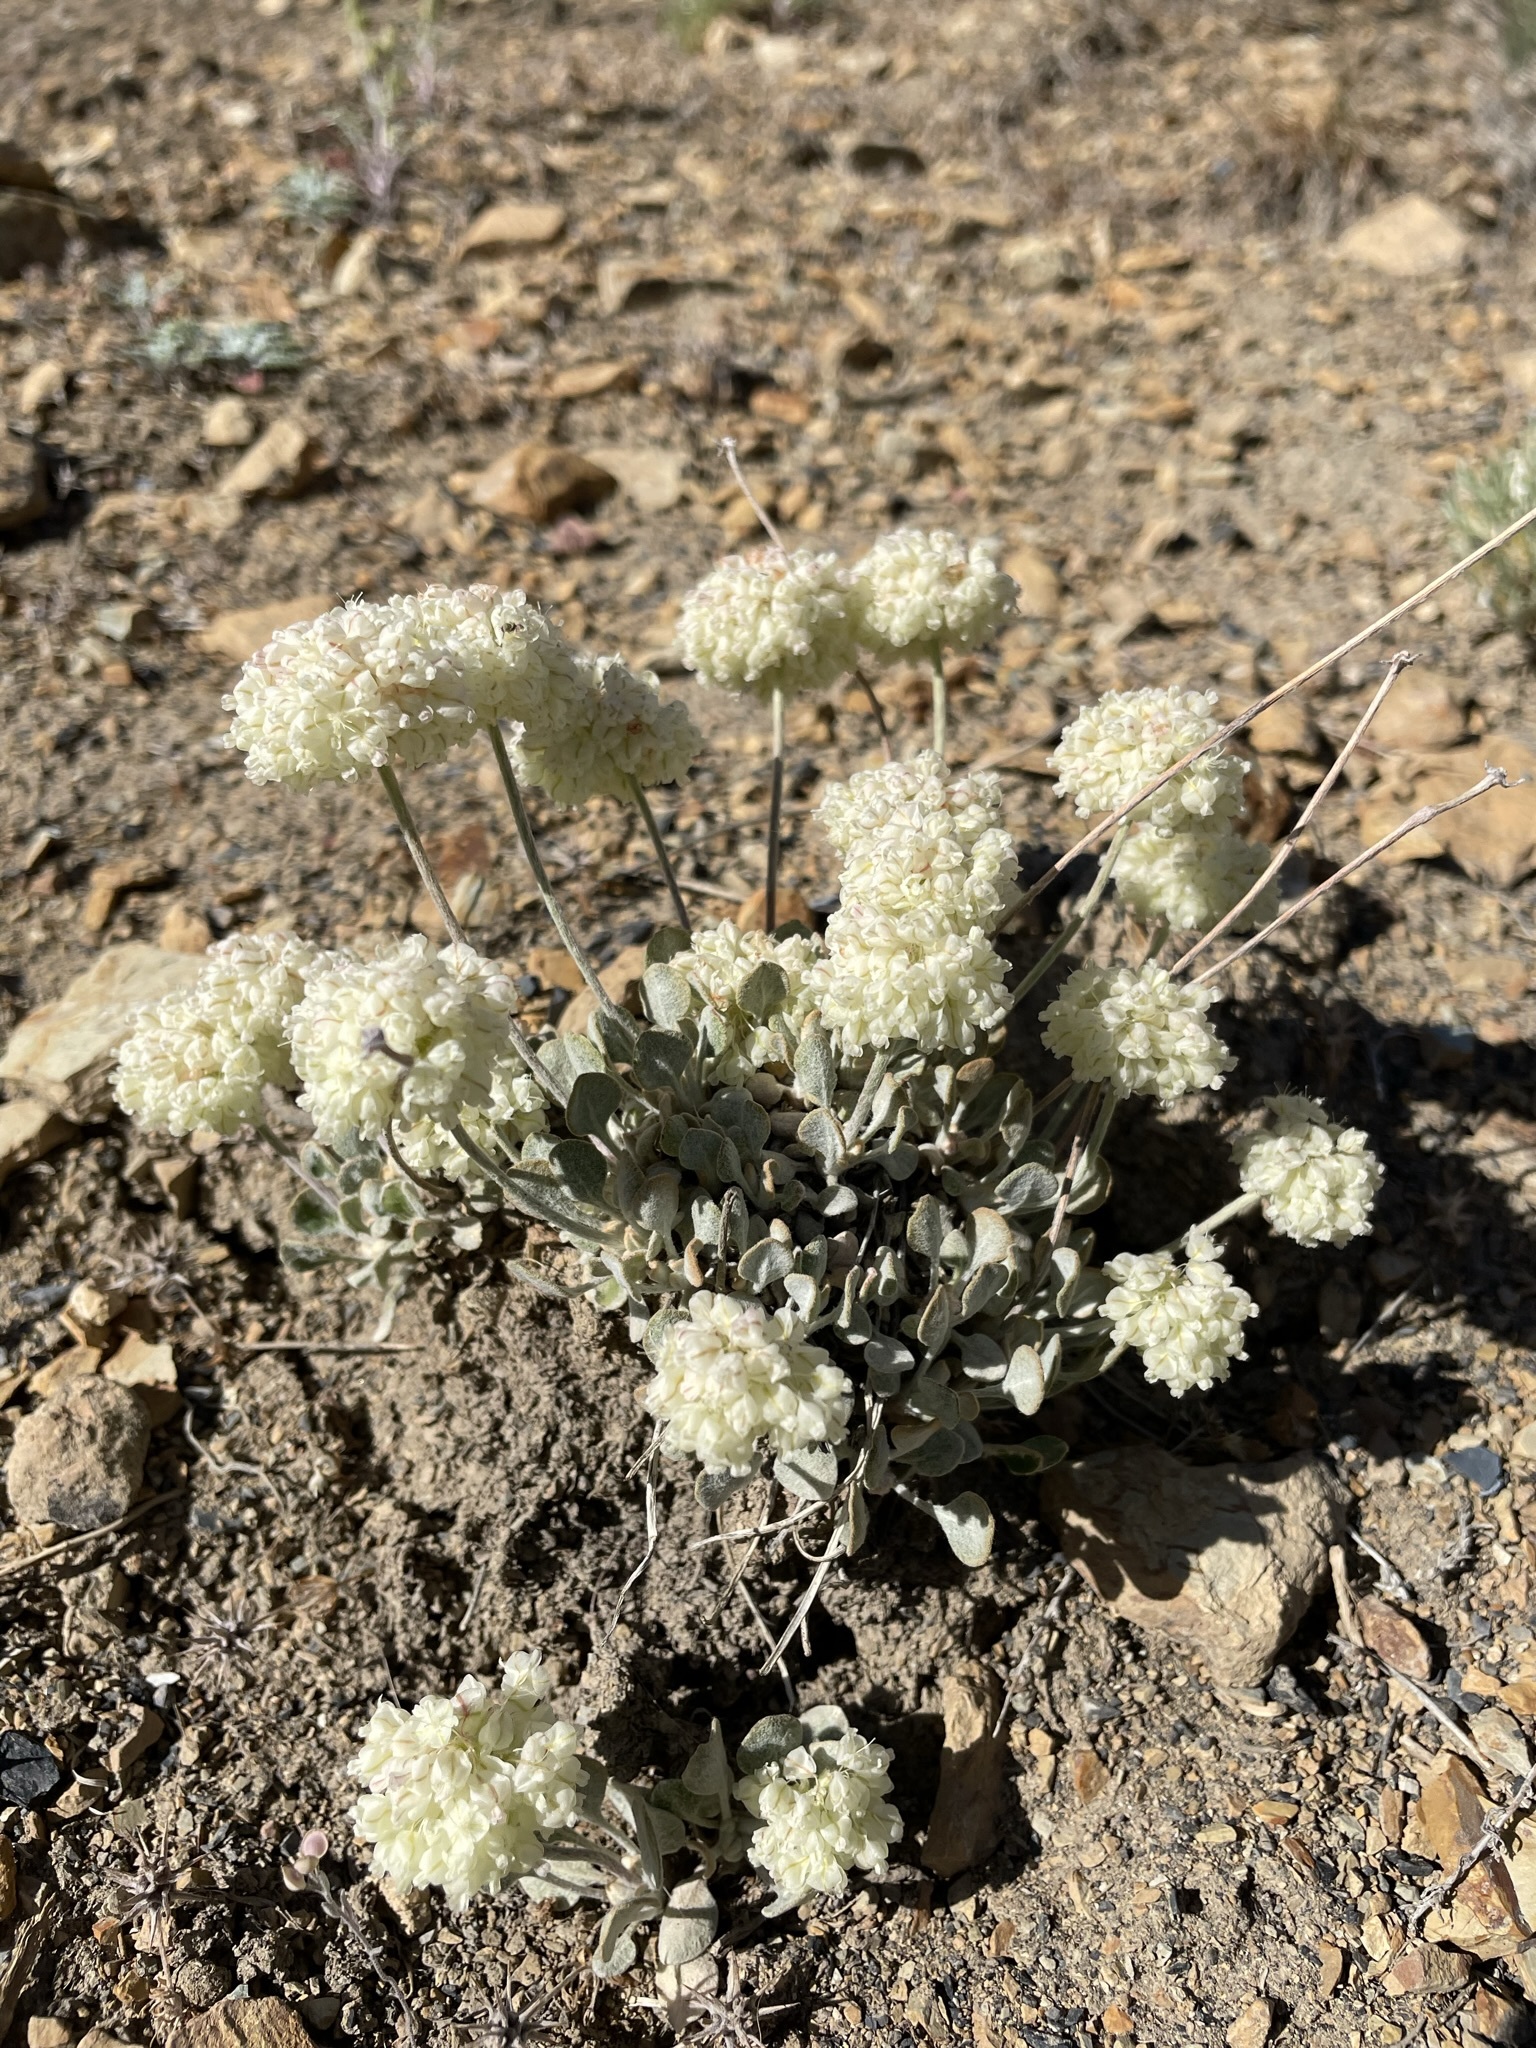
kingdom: Plantae
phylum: Tracheophyta
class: Magnoliopsida
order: Caryophyllales
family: Polygonaceae
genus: Eriogonum
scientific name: Eriogonum ovalifolium
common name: Cushion buckwheat
